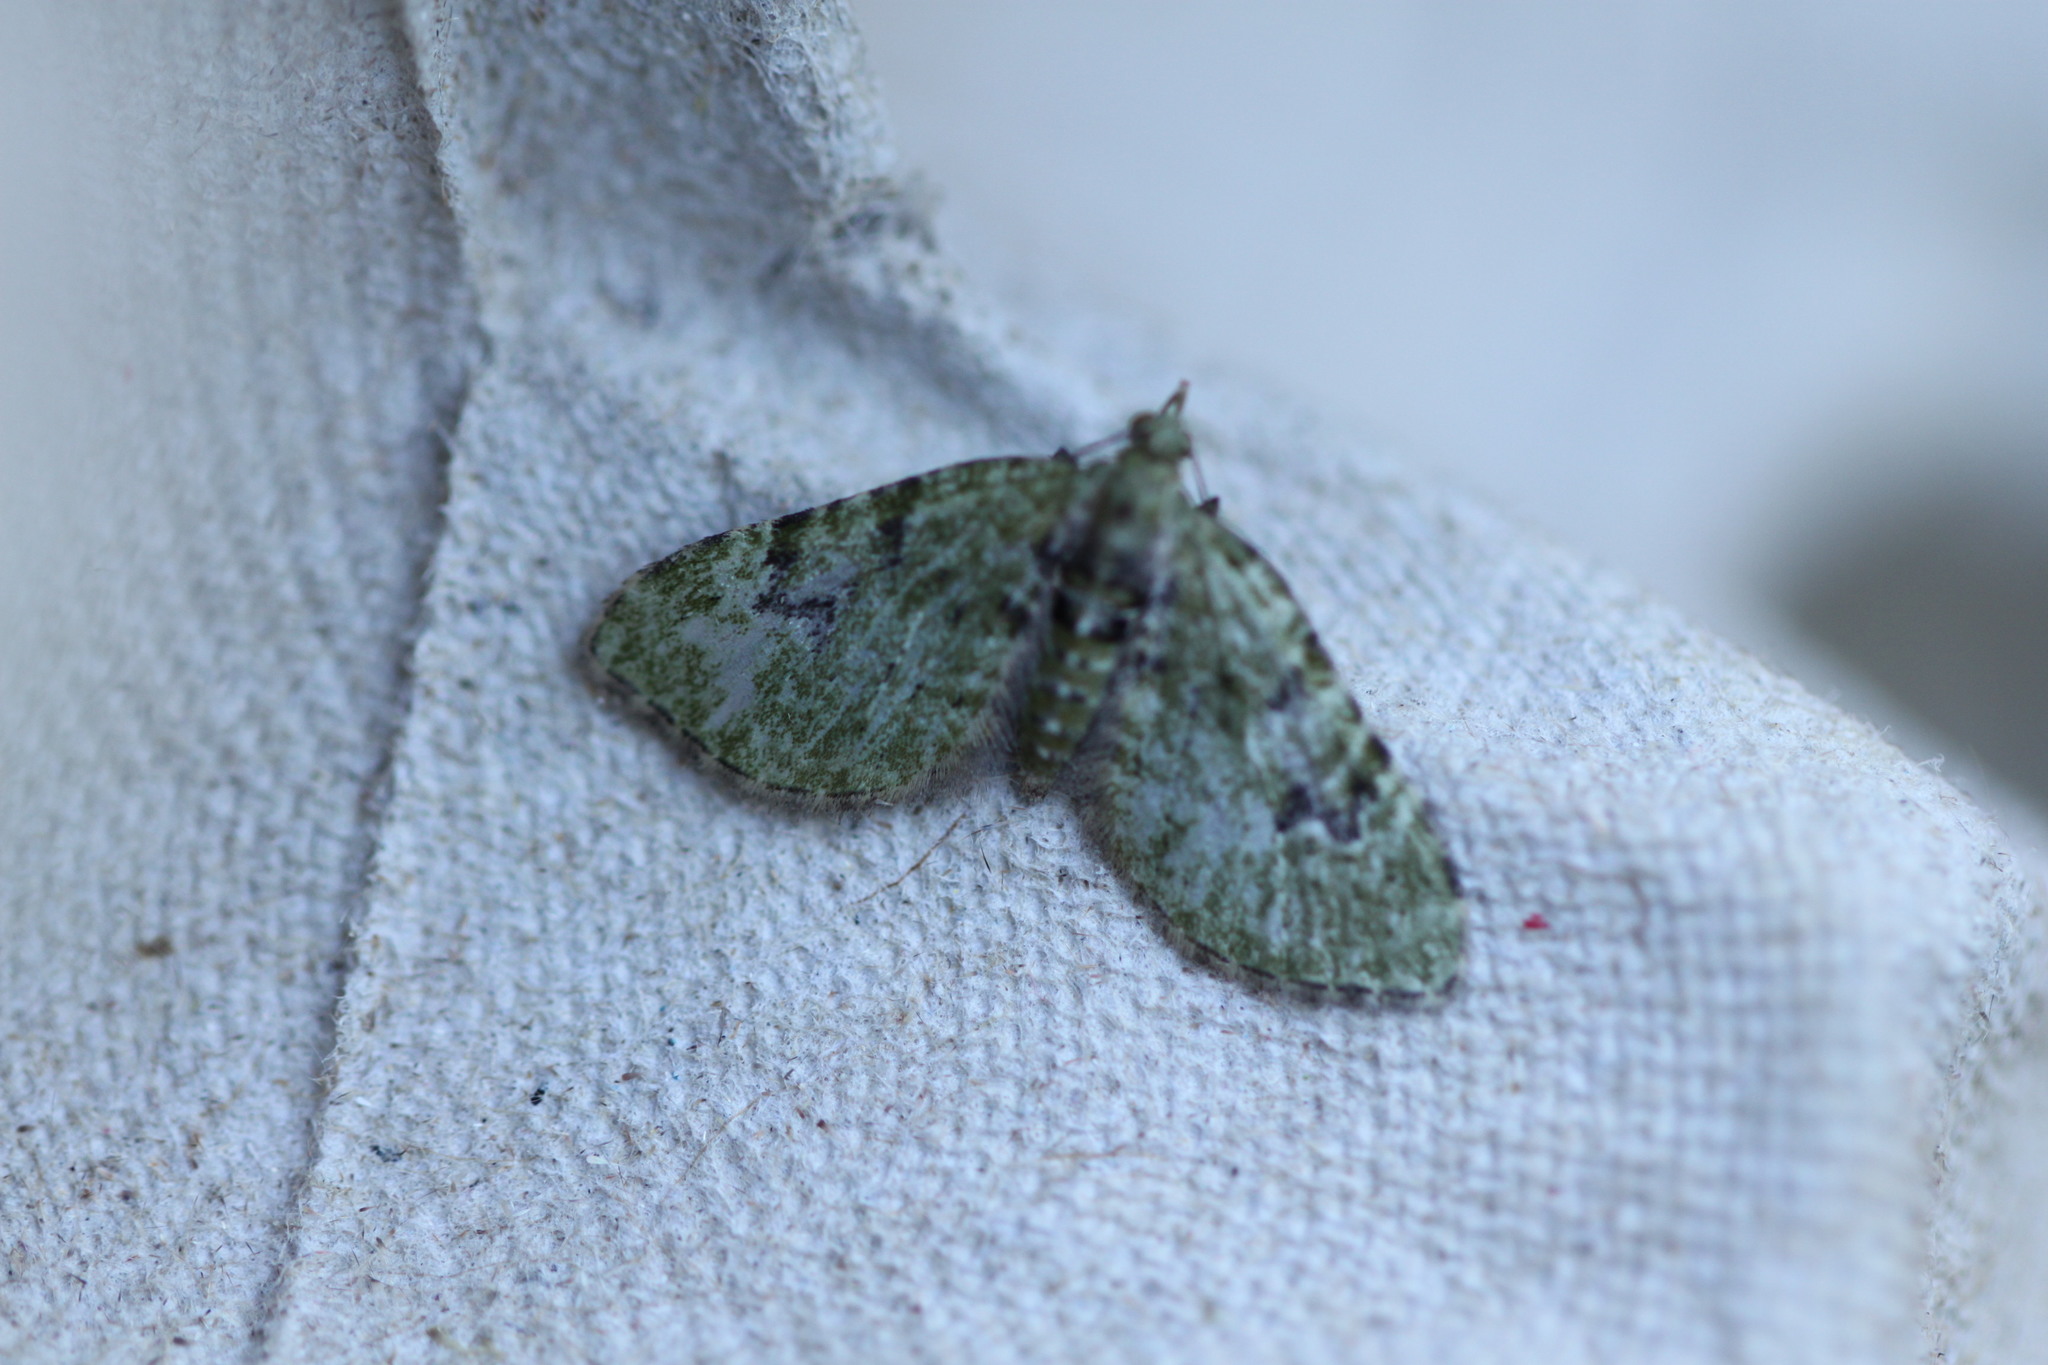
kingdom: Animalia
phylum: Arthropoda
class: Insecta
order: Lepidoptera
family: Geometridae
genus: Chloroclystis
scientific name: Chloroclystis v-ata
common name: V-pug
